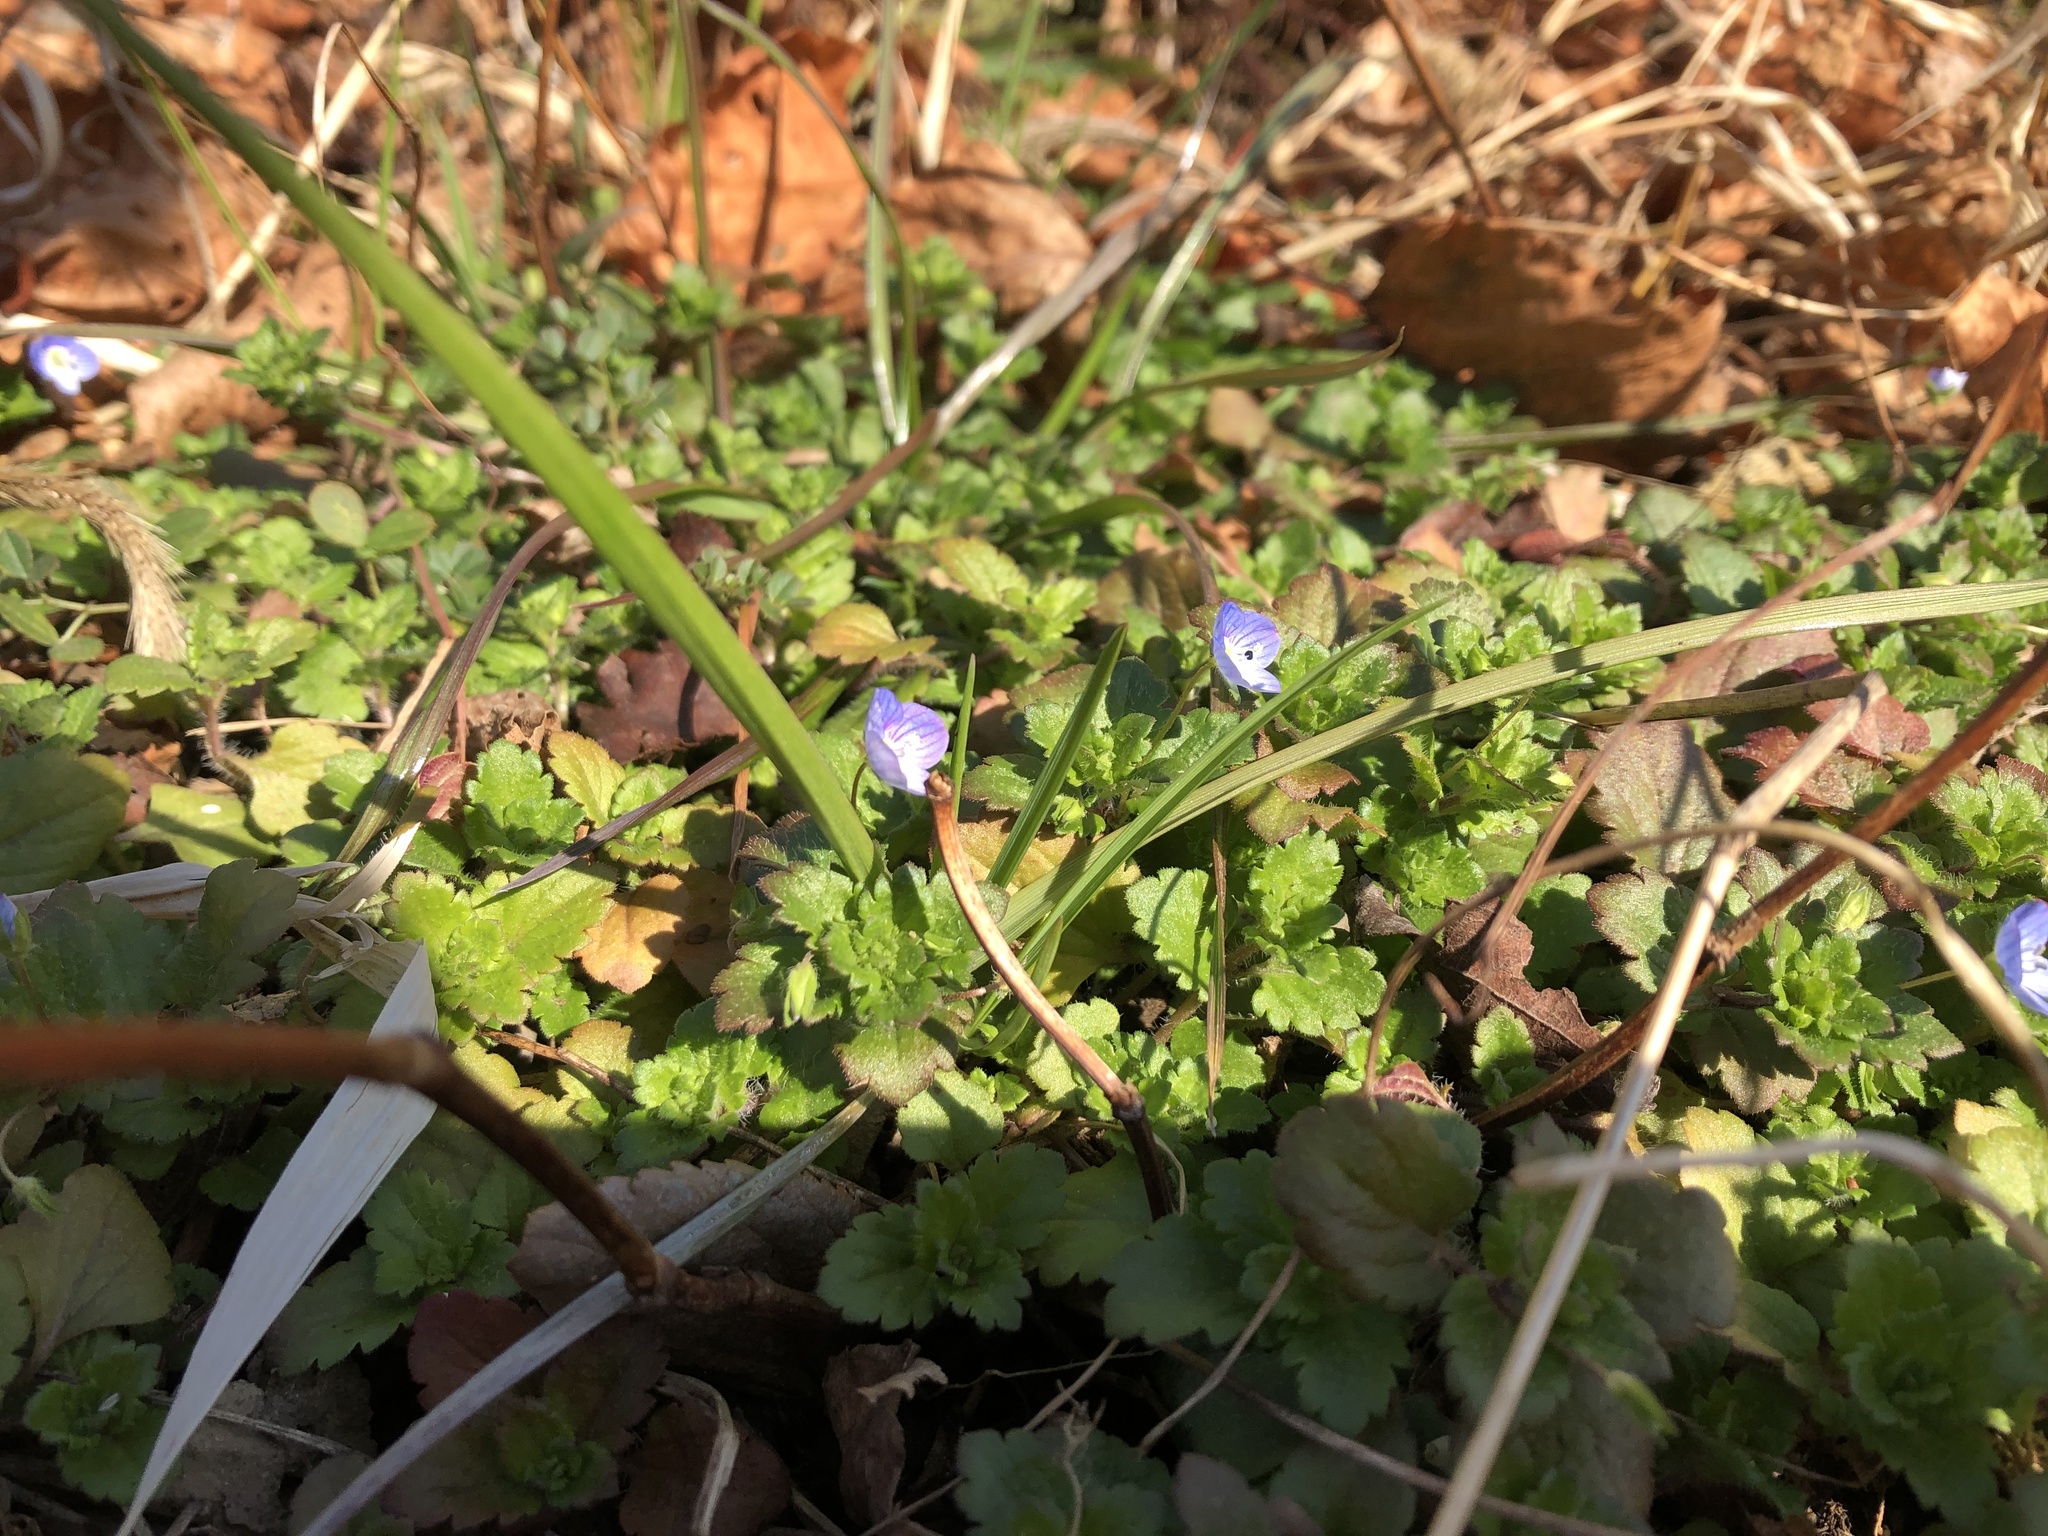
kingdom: Plantae
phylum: Tracheophyta
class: Magnoliopsida
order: Lamiales
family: Plantaginaceae
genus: Veronica
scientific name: Veronica persica
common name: Common field-speedwell
